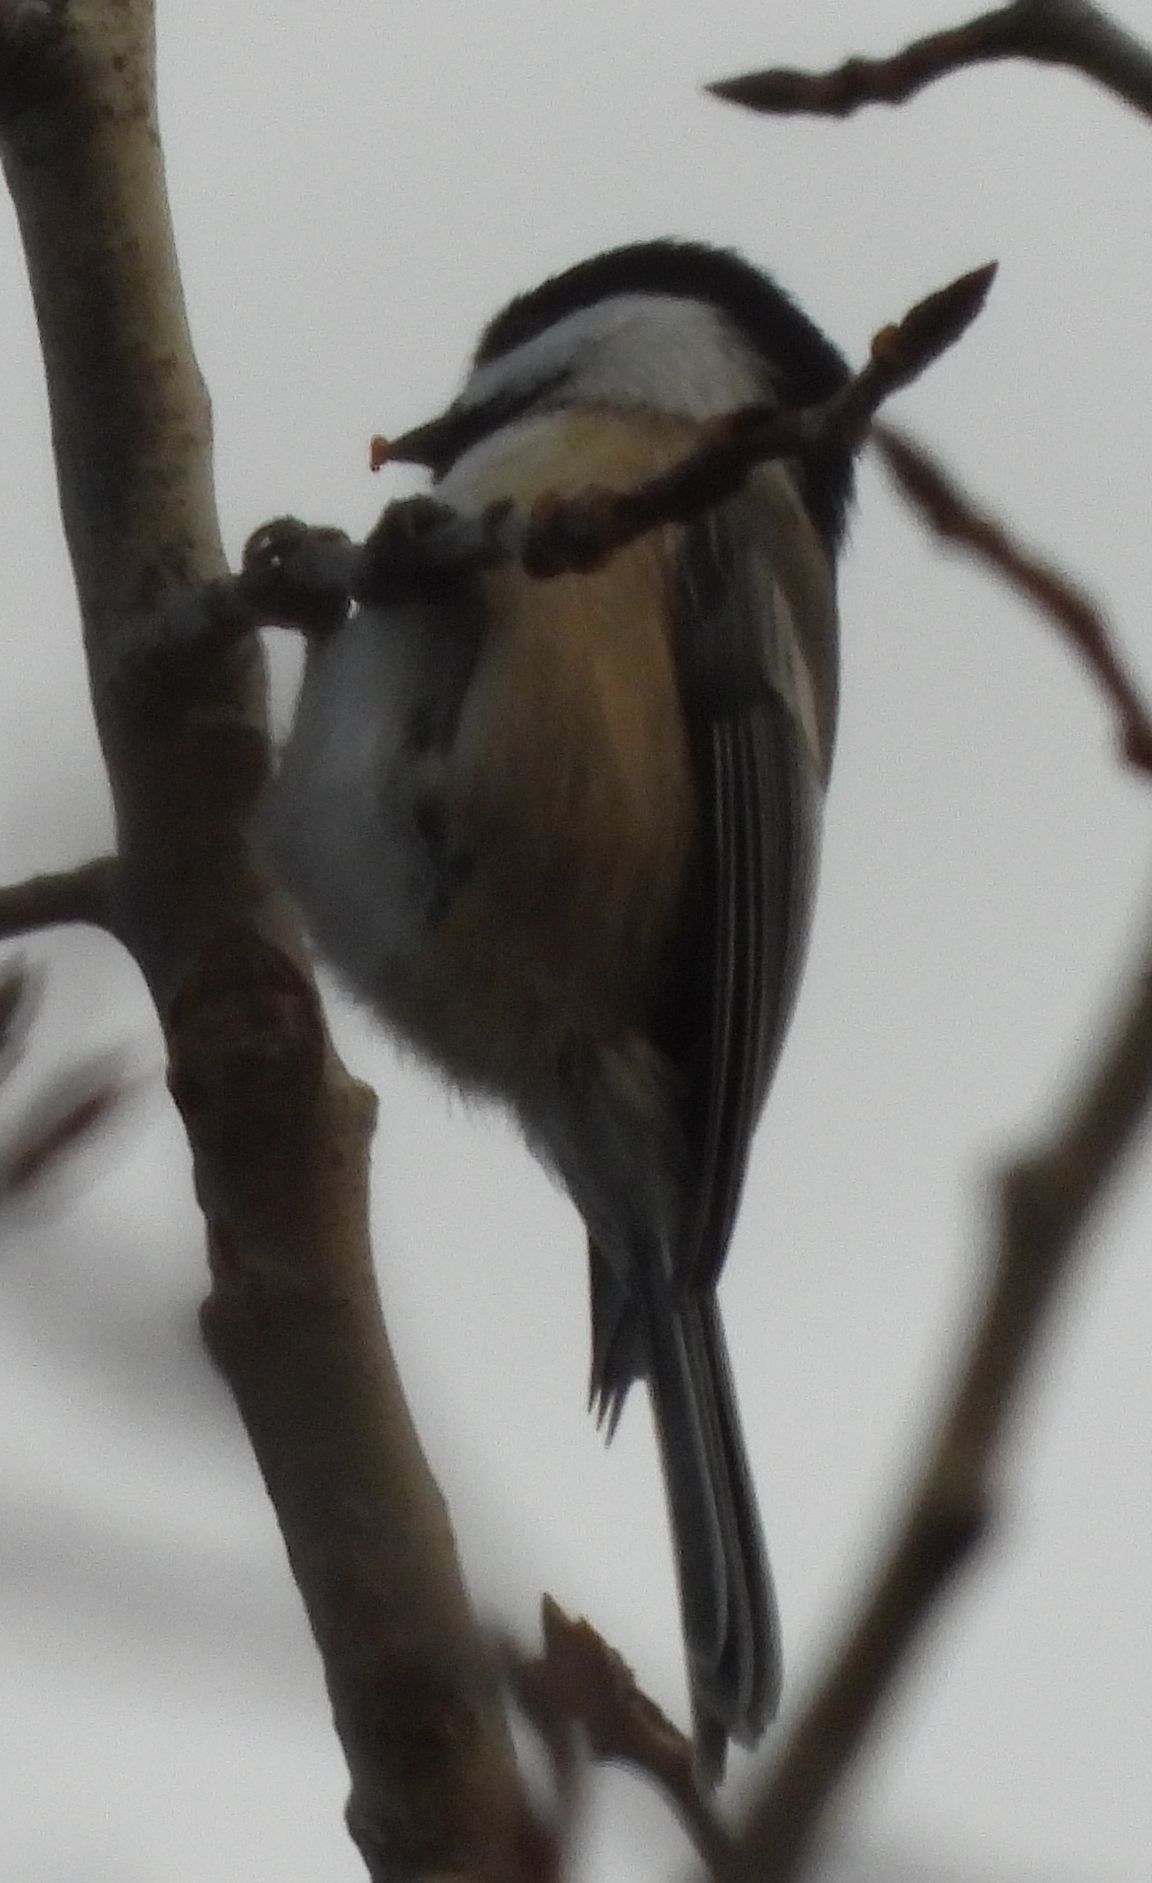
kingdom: Animalia
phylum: Chordata
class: Aves
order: Passeriformes
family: Paridae
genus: Poecile
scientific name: Poecile atricapillus
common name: Black-capped chickadee
